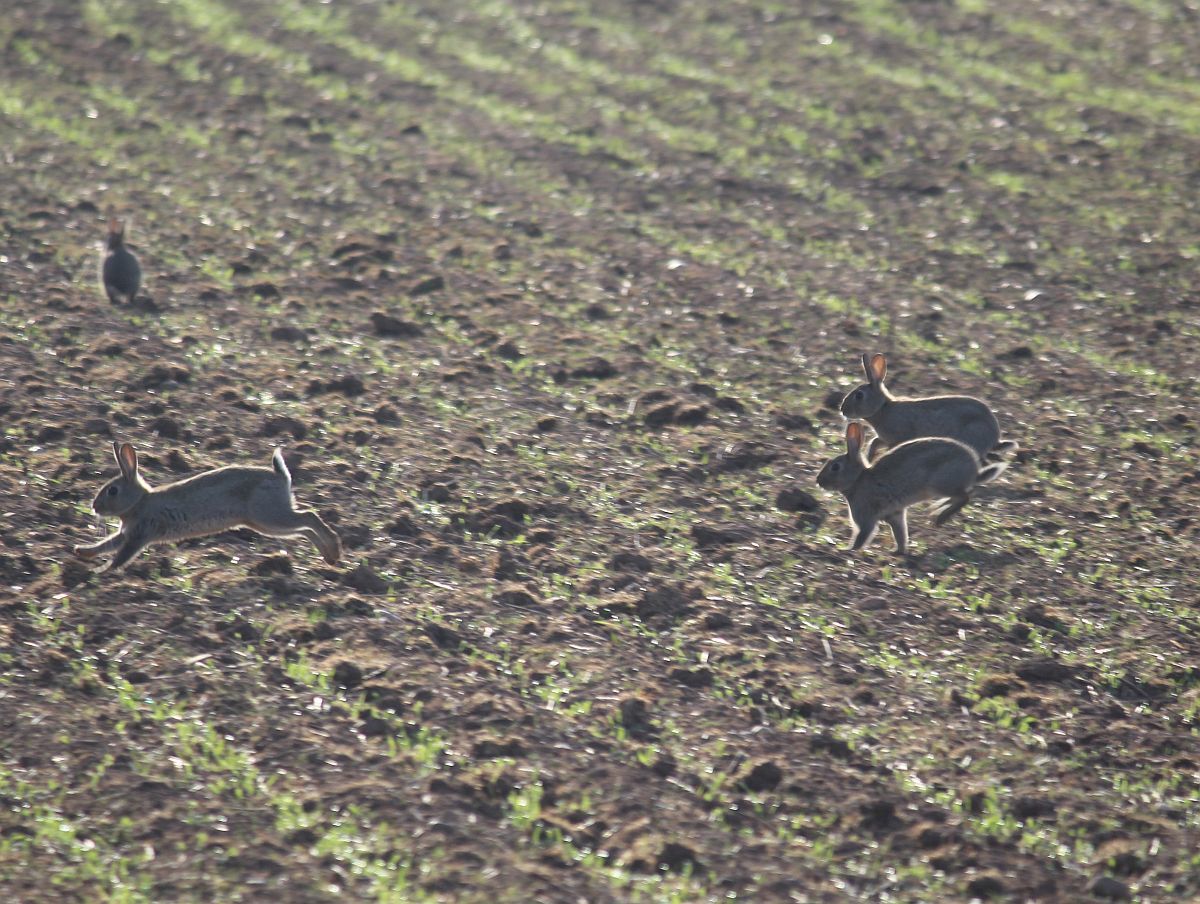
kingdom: Animalia
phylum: Chordata
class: Mammalia
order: Lagomorpha
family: Leporidae
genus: Oryctolagus
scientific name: Oryctolagus cuniculus
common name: European rabbit
